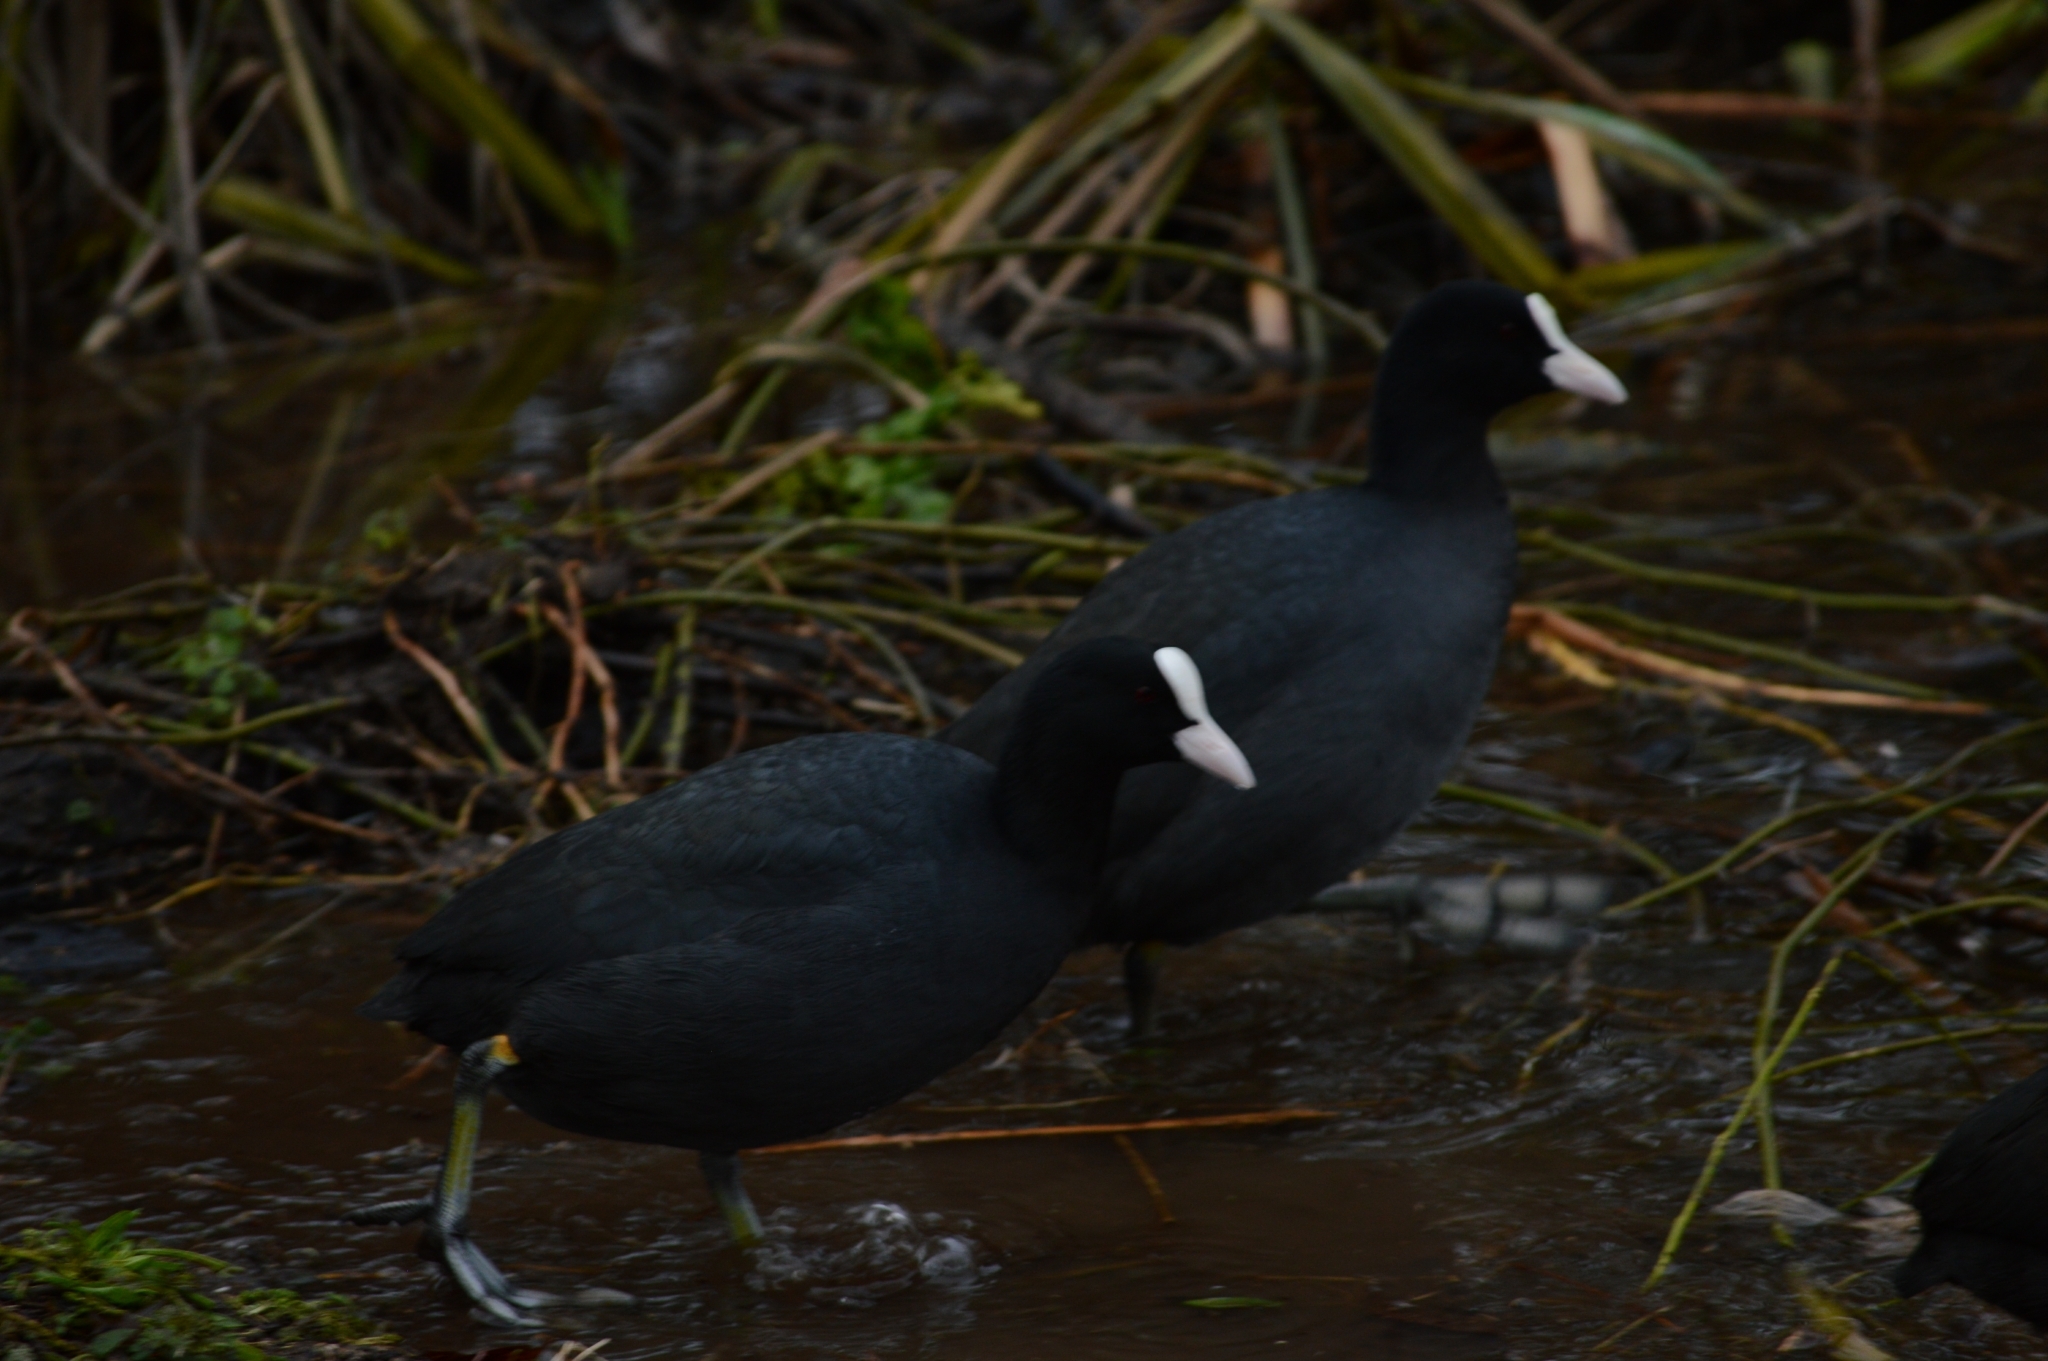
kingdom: Animalia
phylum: Chordata
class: Aves
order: Gruiformes
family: Rallidae
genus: Fulica
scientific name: Fulica atra
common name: Eurasian coot
